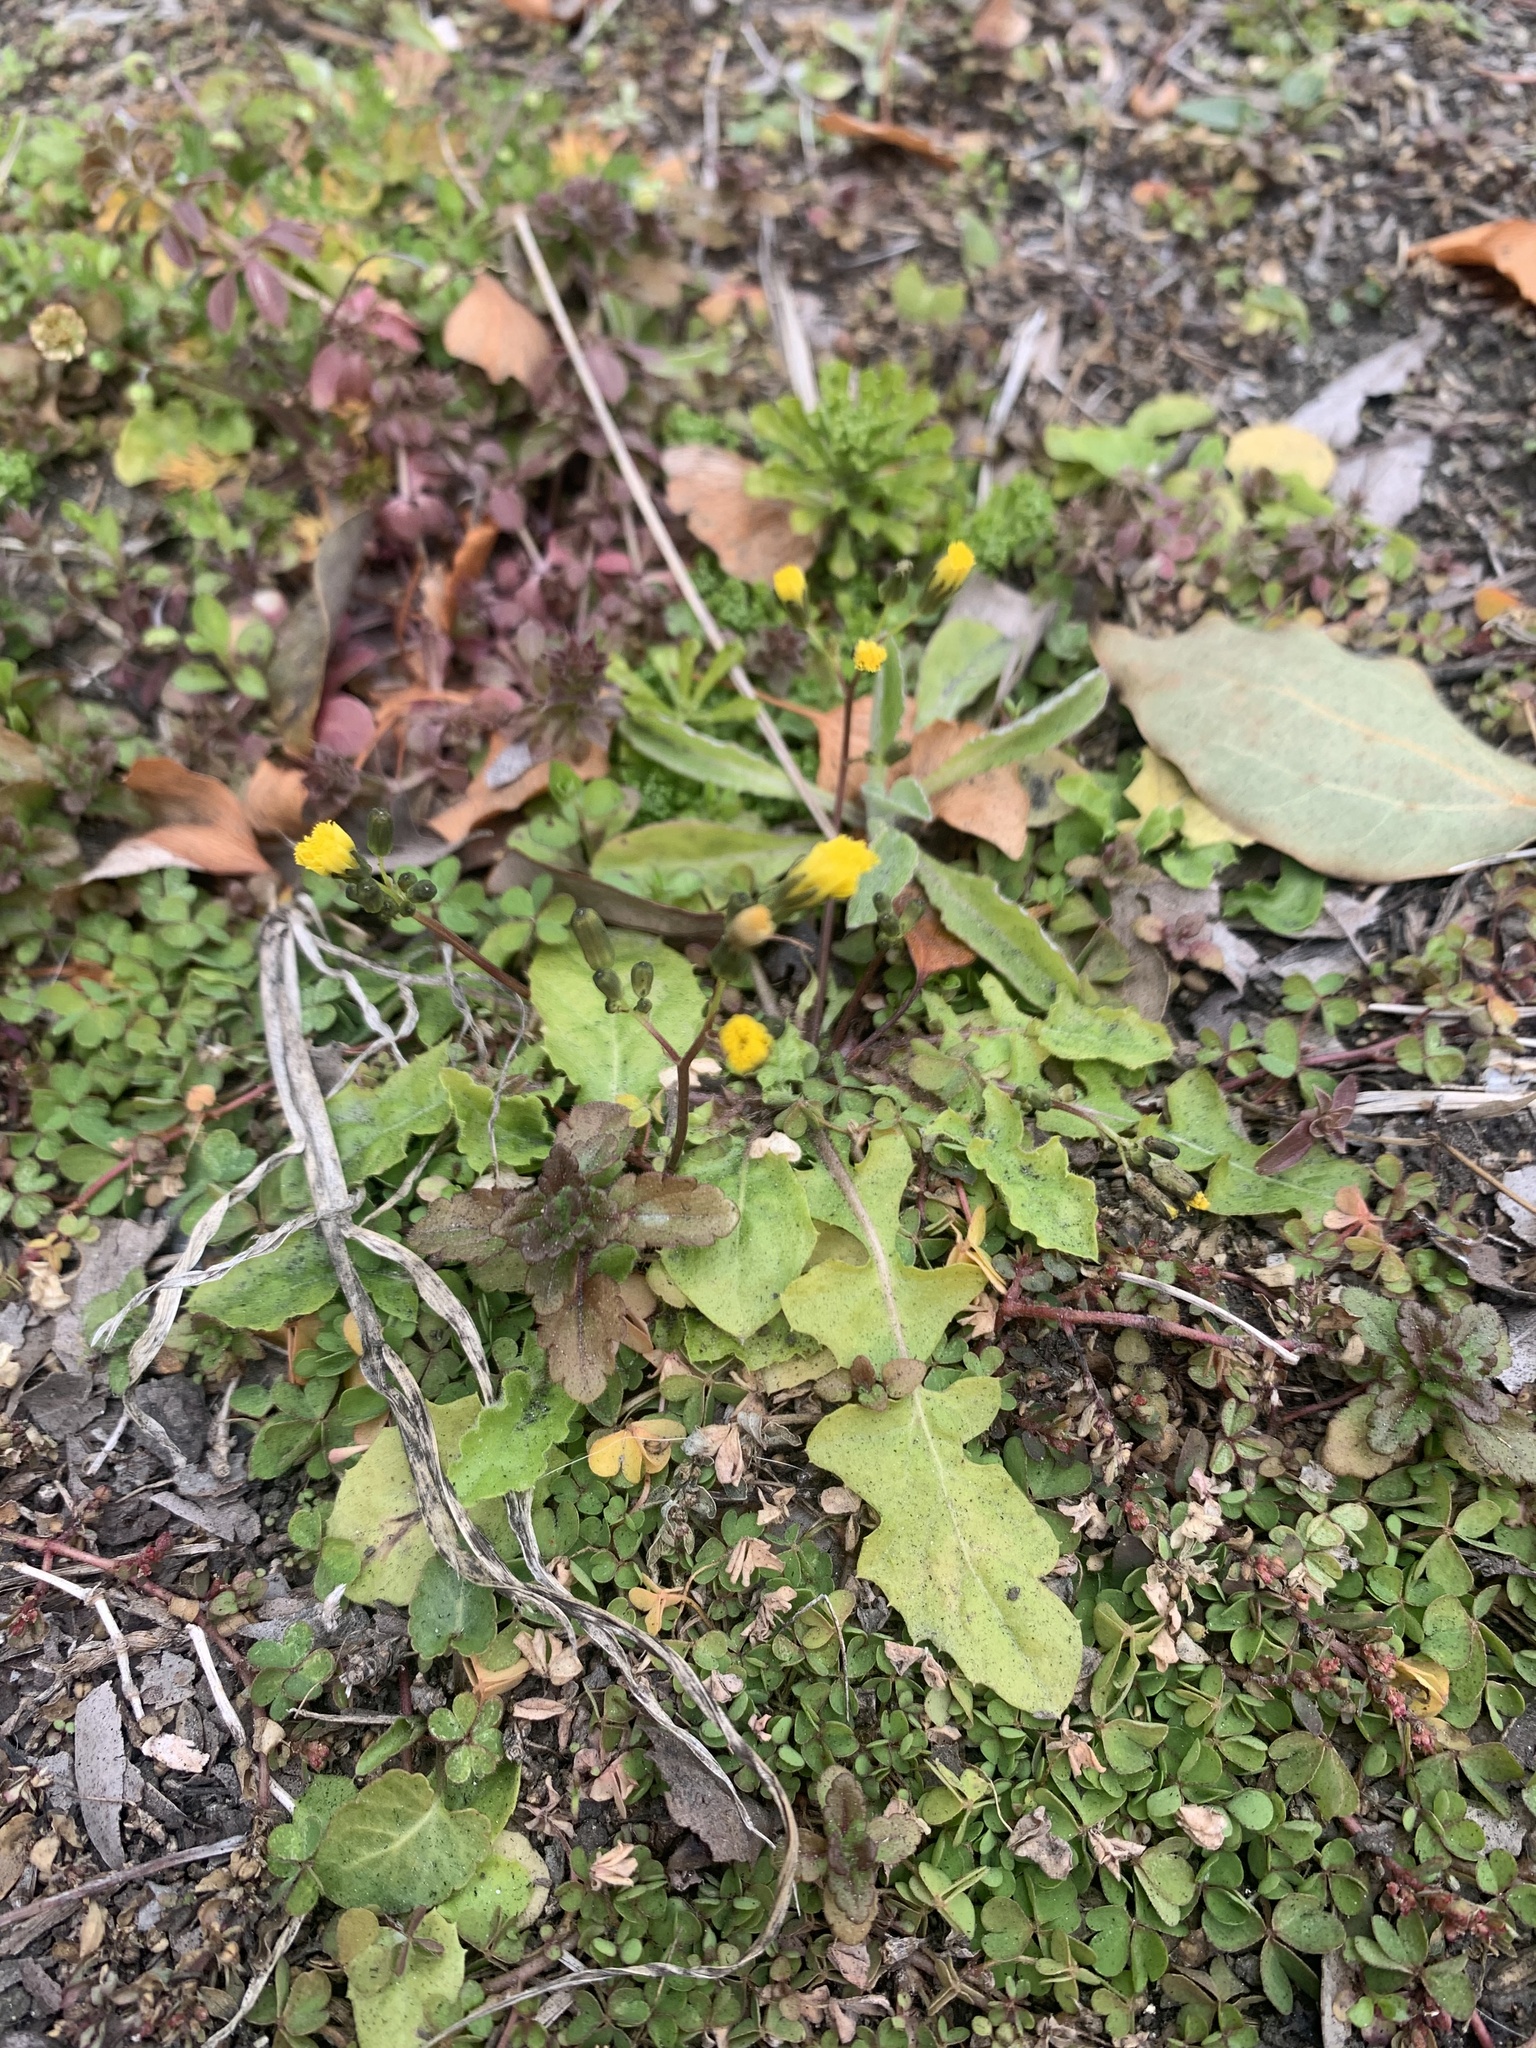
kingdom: Plantae
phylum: Tracheophyta
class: Magnoliopsida
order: Asterales
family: Asteraceae
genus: Youngia
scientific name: Youngia japonica
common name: Oriental false hawksbeard
